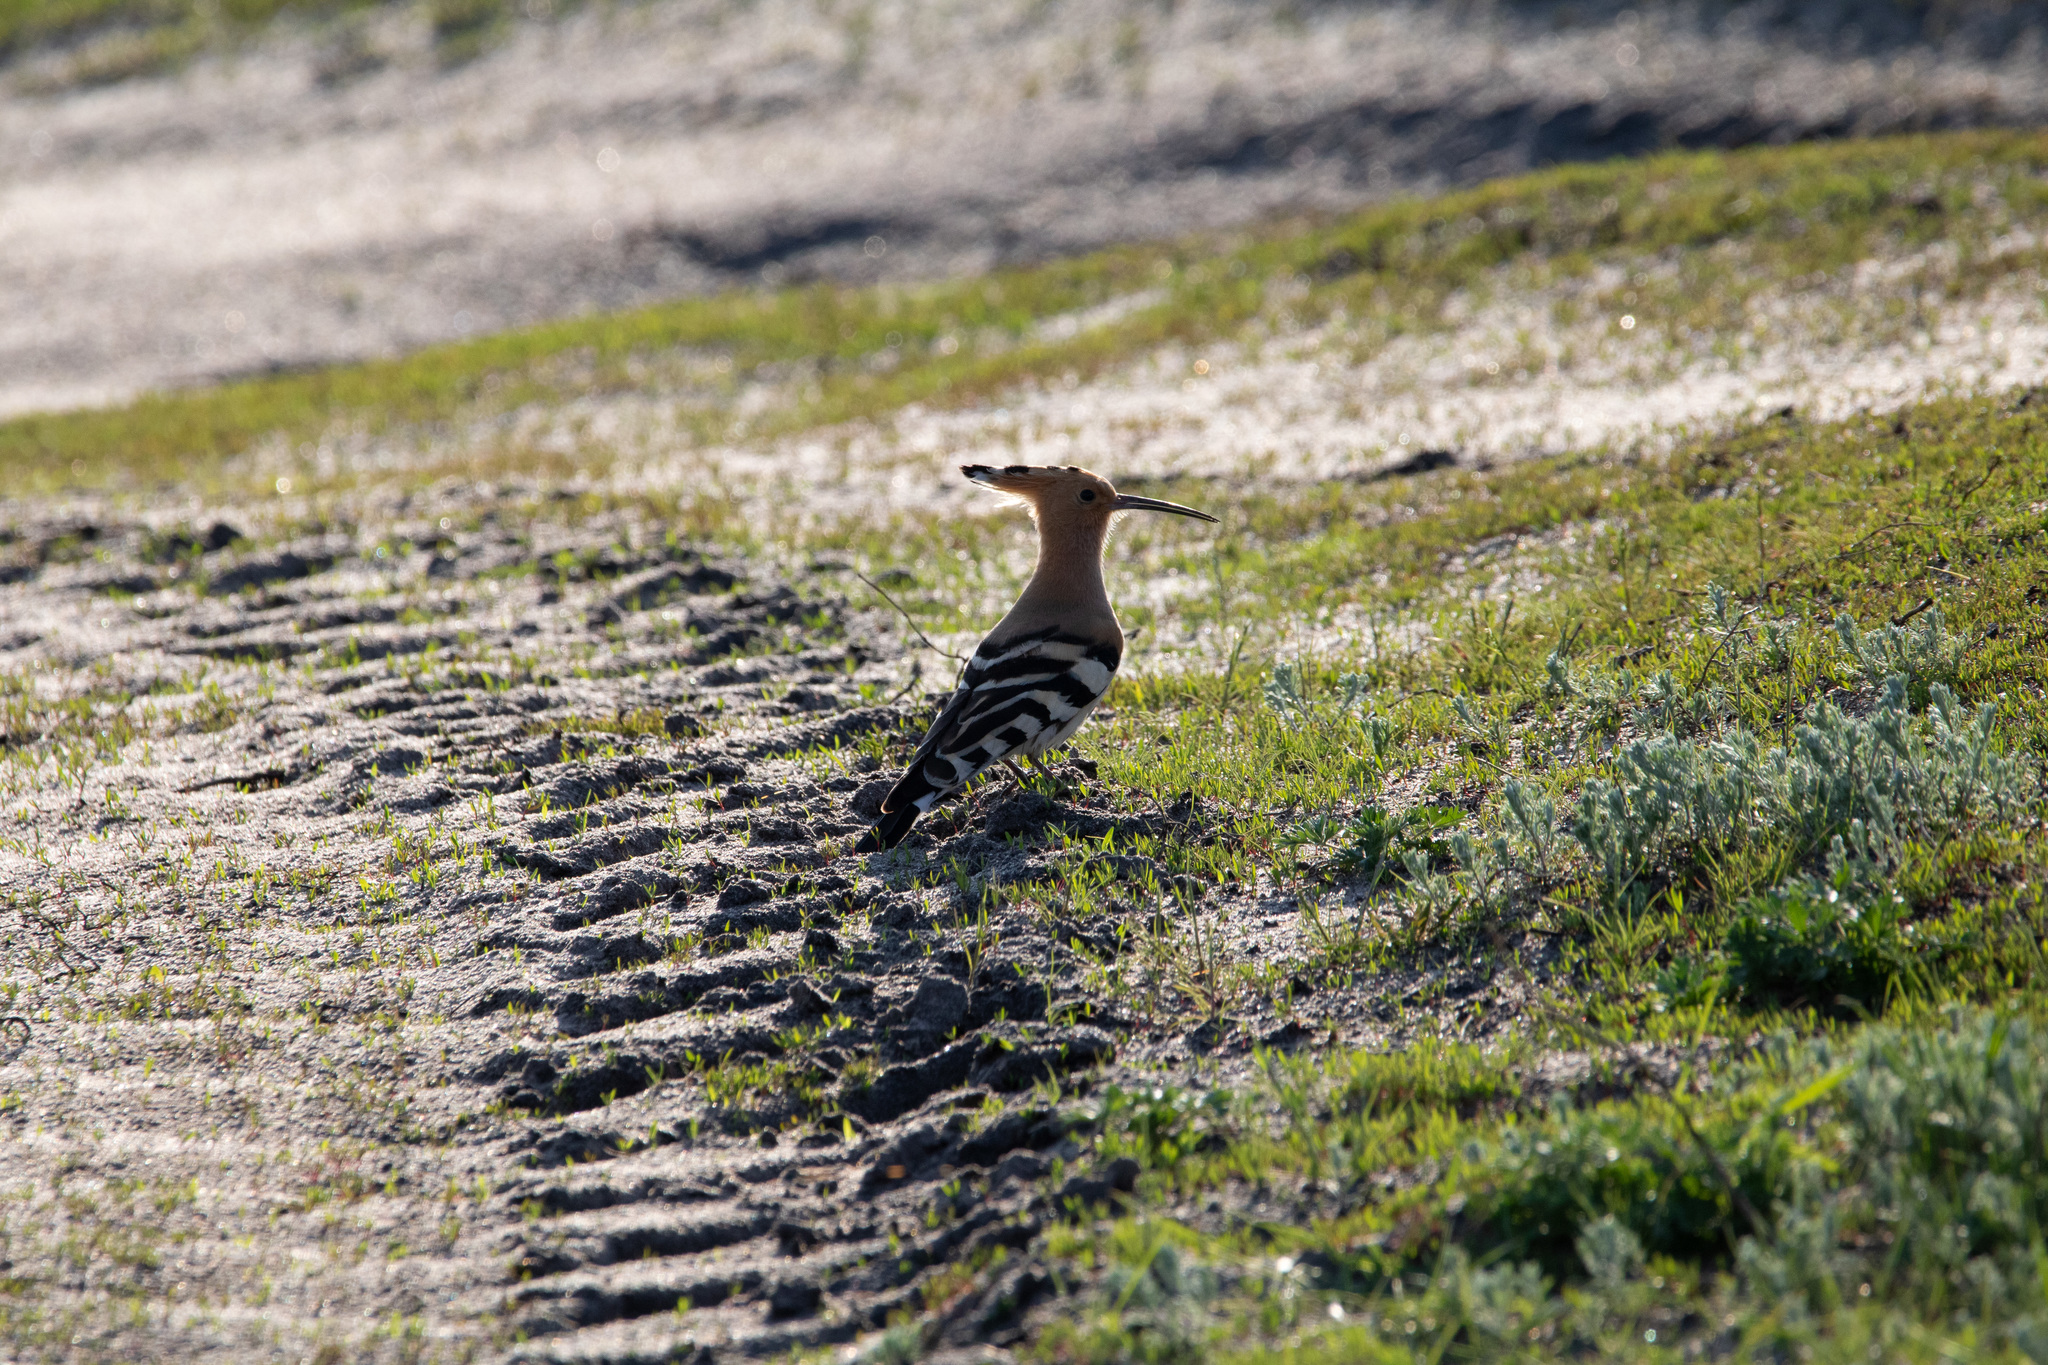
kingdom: Animalia
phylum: Chordata
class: Aves
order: Bucerotiformes
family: Upupidae
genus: Upupa
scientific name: Upupa epops
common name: Eurasian hoopoe
